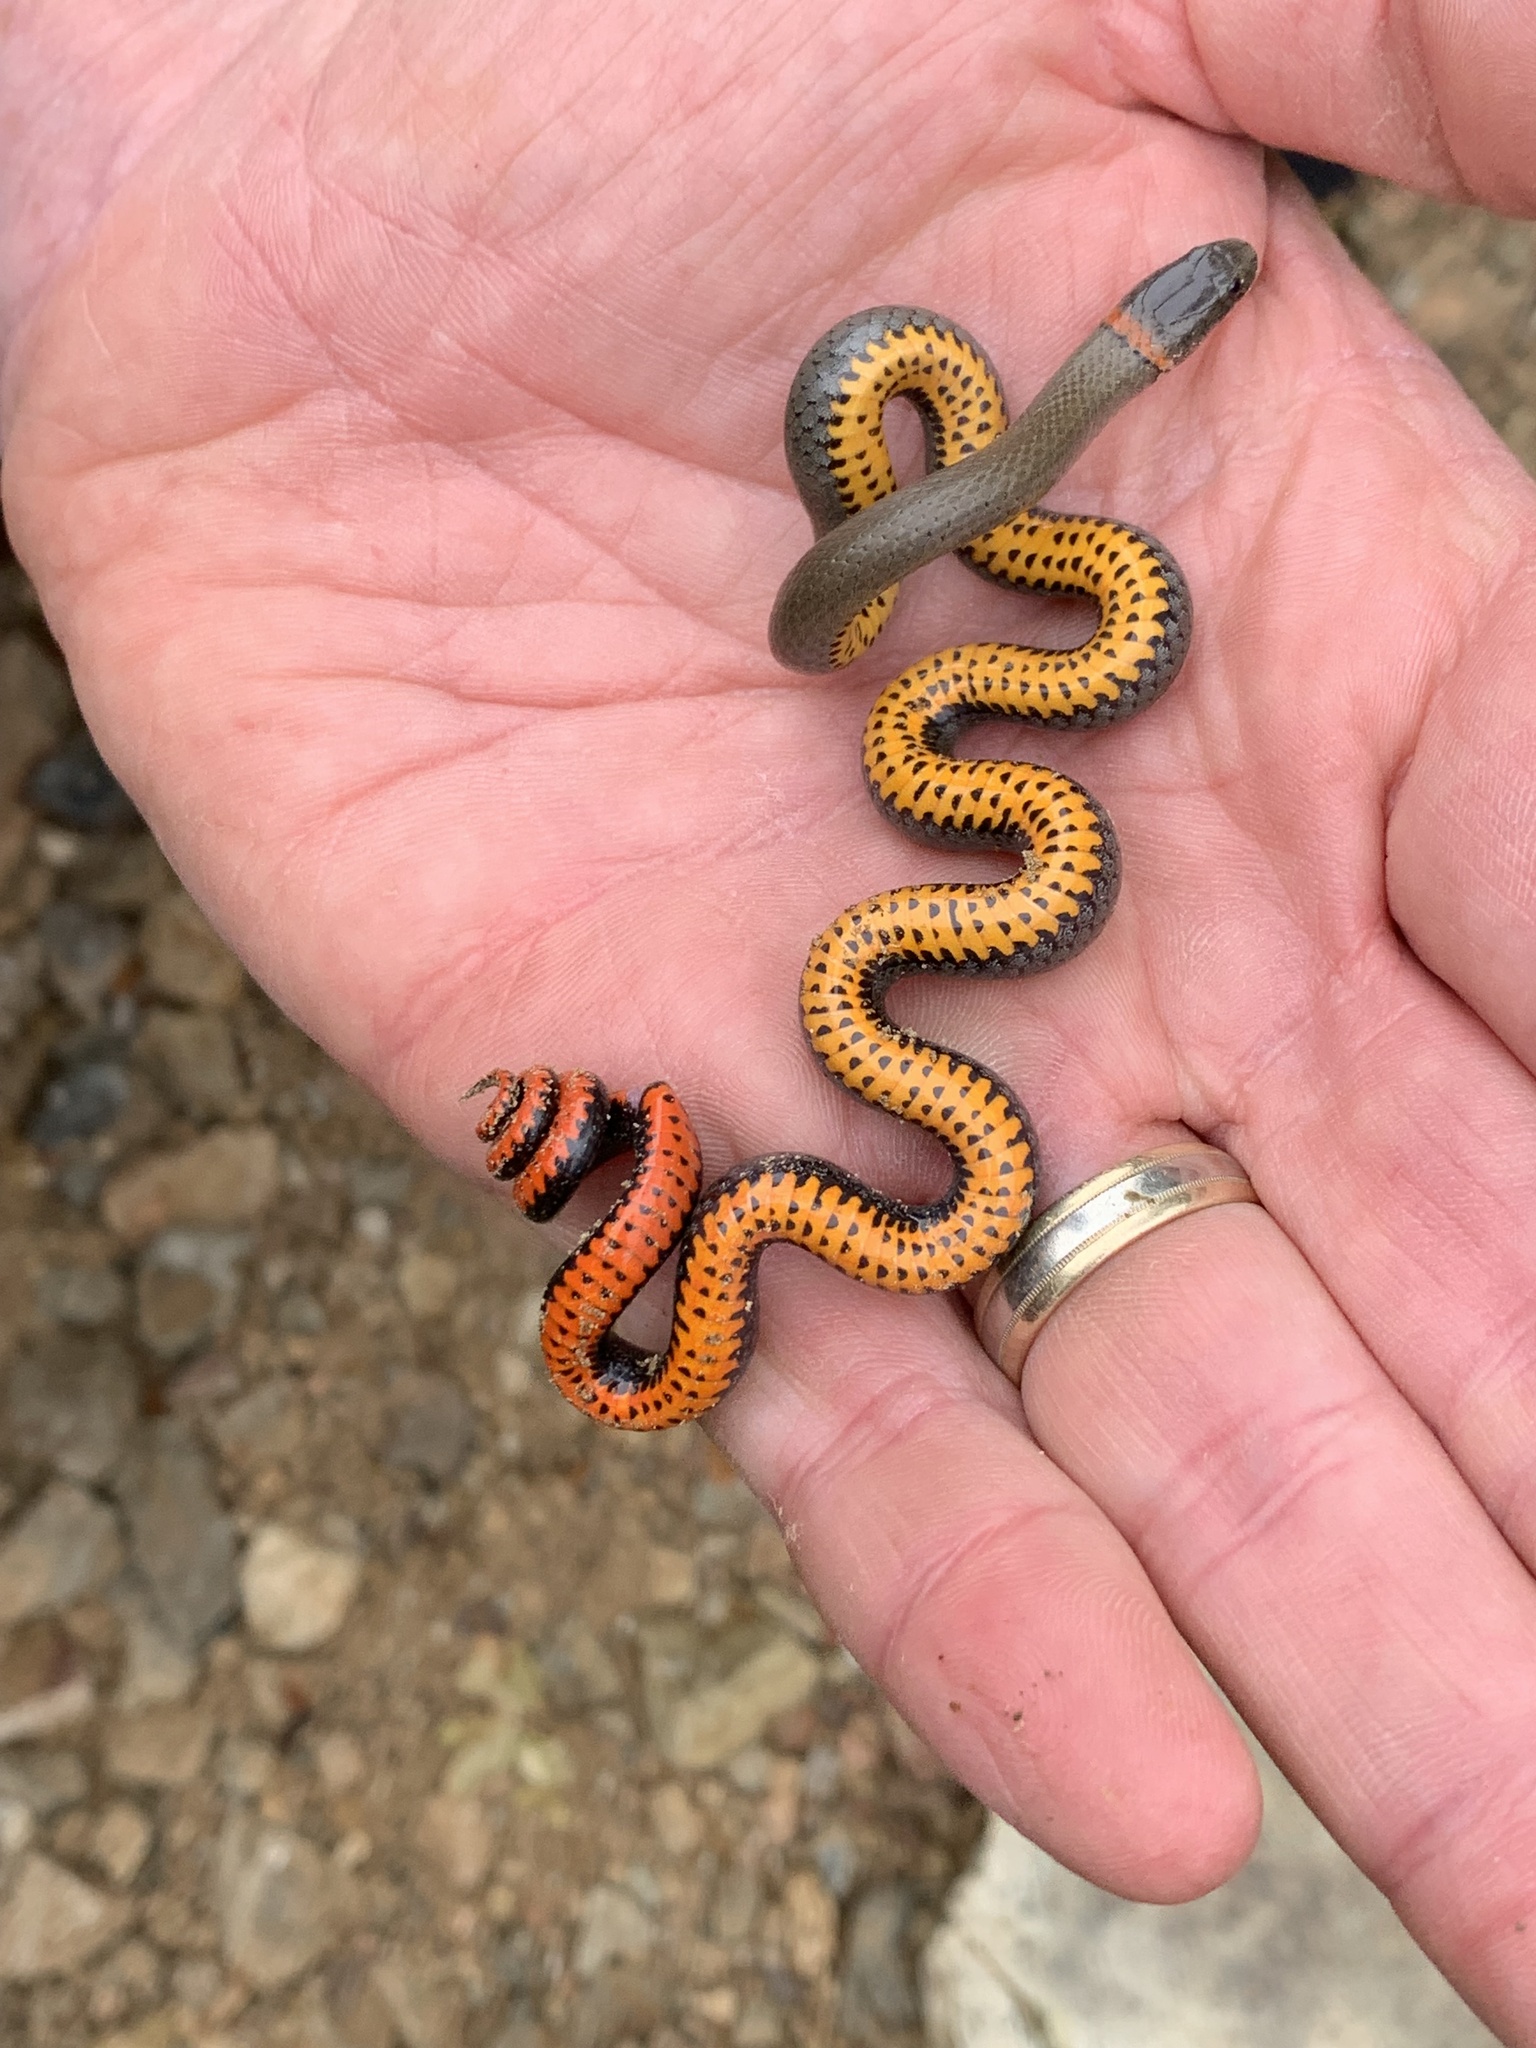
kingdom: Animalia
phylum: Chordata
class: Squamata
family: Colubridae
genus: Diadophis
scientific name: Diadophis punctatus
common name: Ringneck snake
